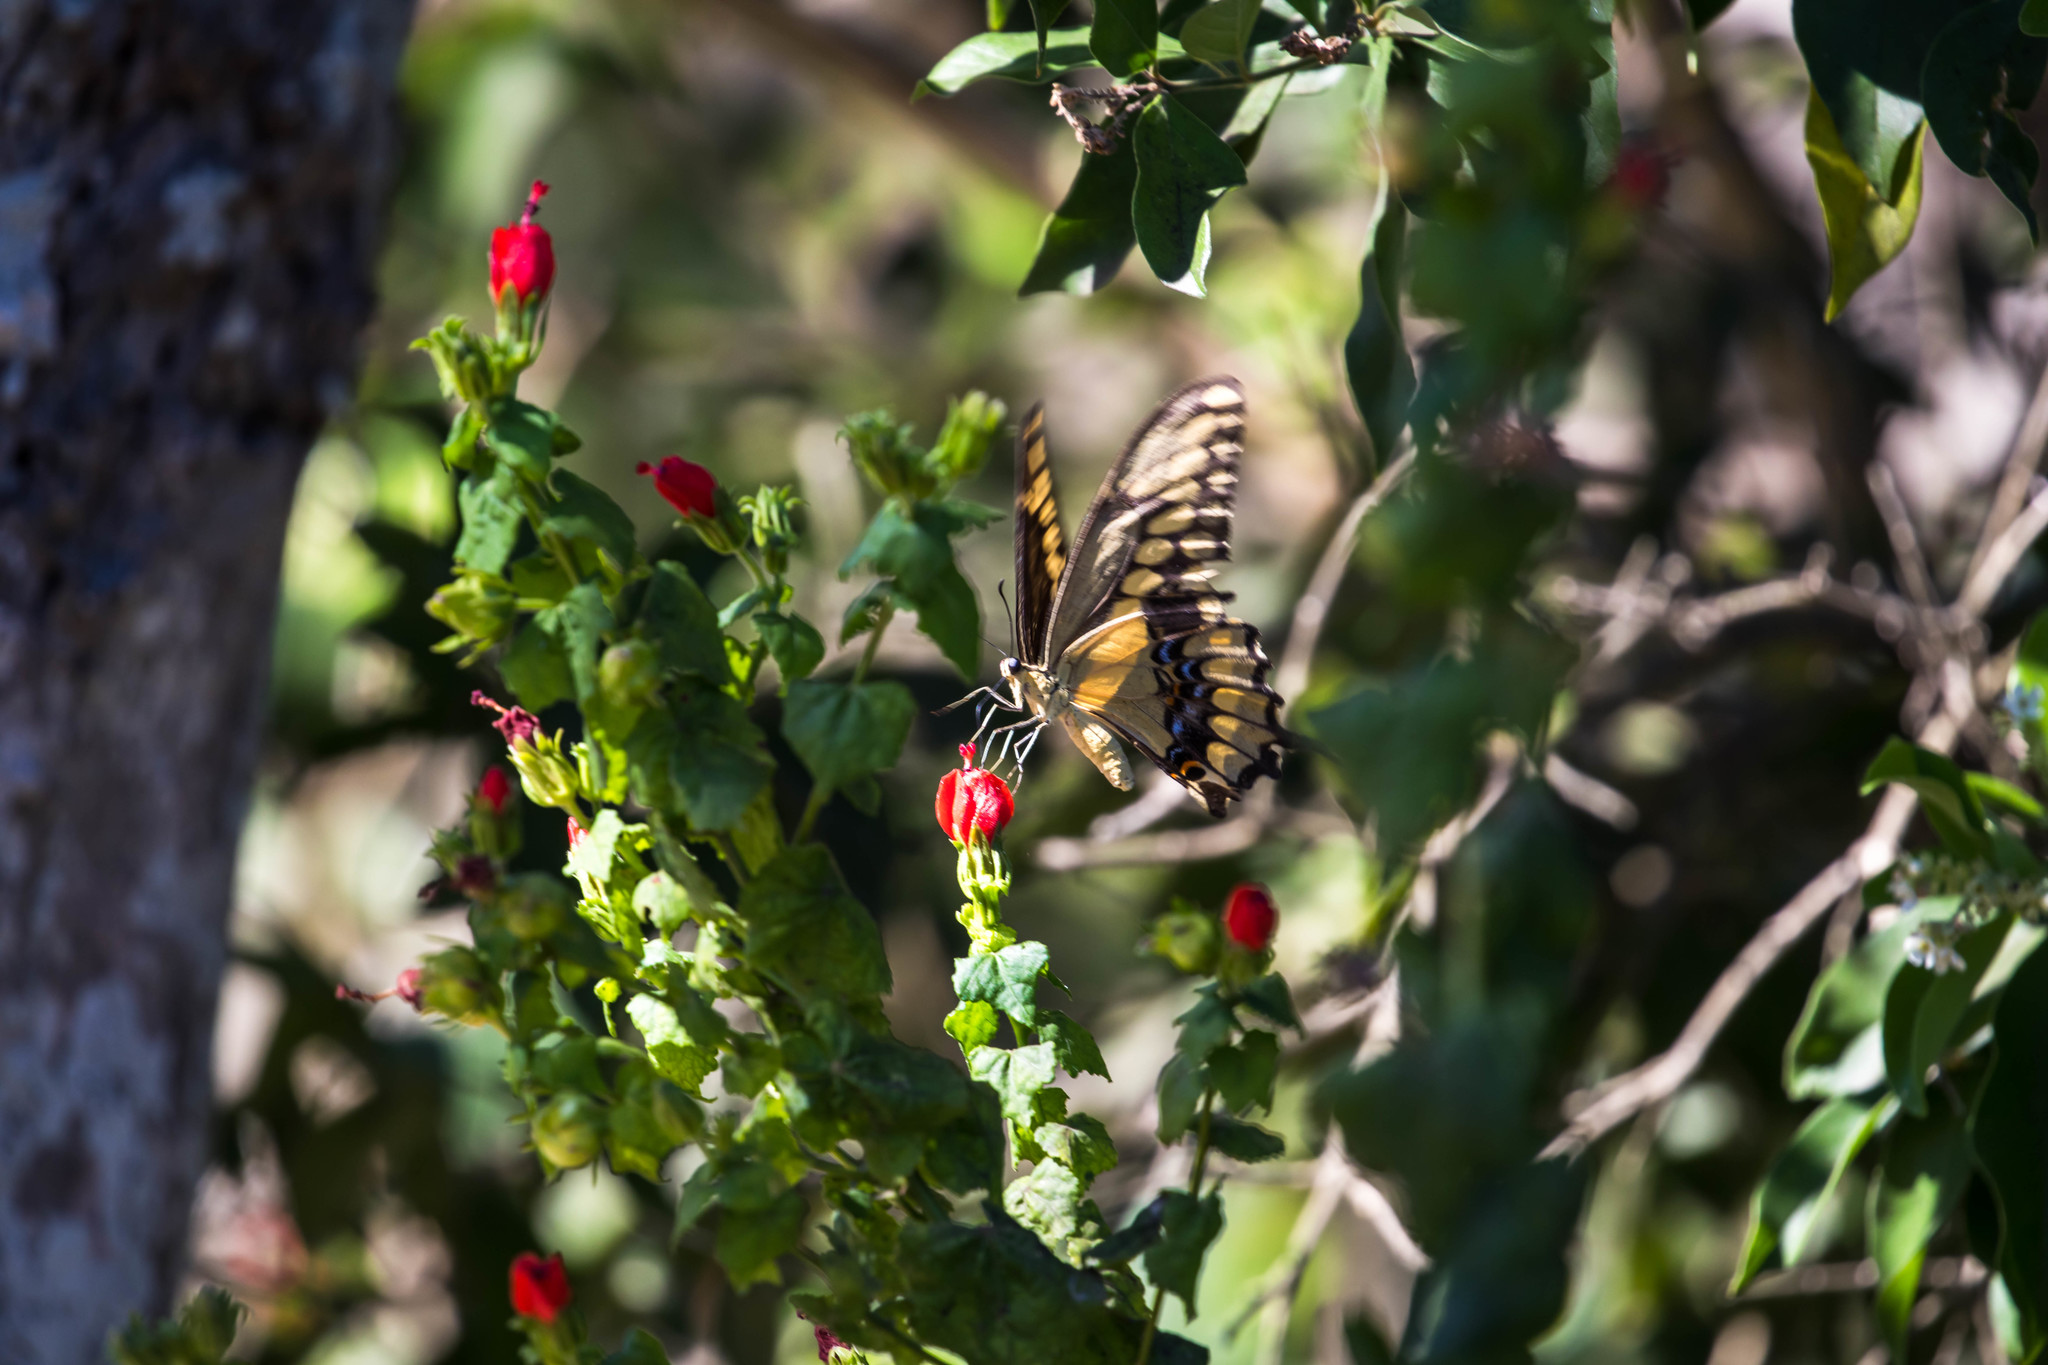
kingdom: Animalia
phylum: Arthropoda
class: Insecta
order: Lepidoptera
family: Papilionidae
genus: Papilio
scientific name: Papilio rumiko
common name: Western giant swallowtail
